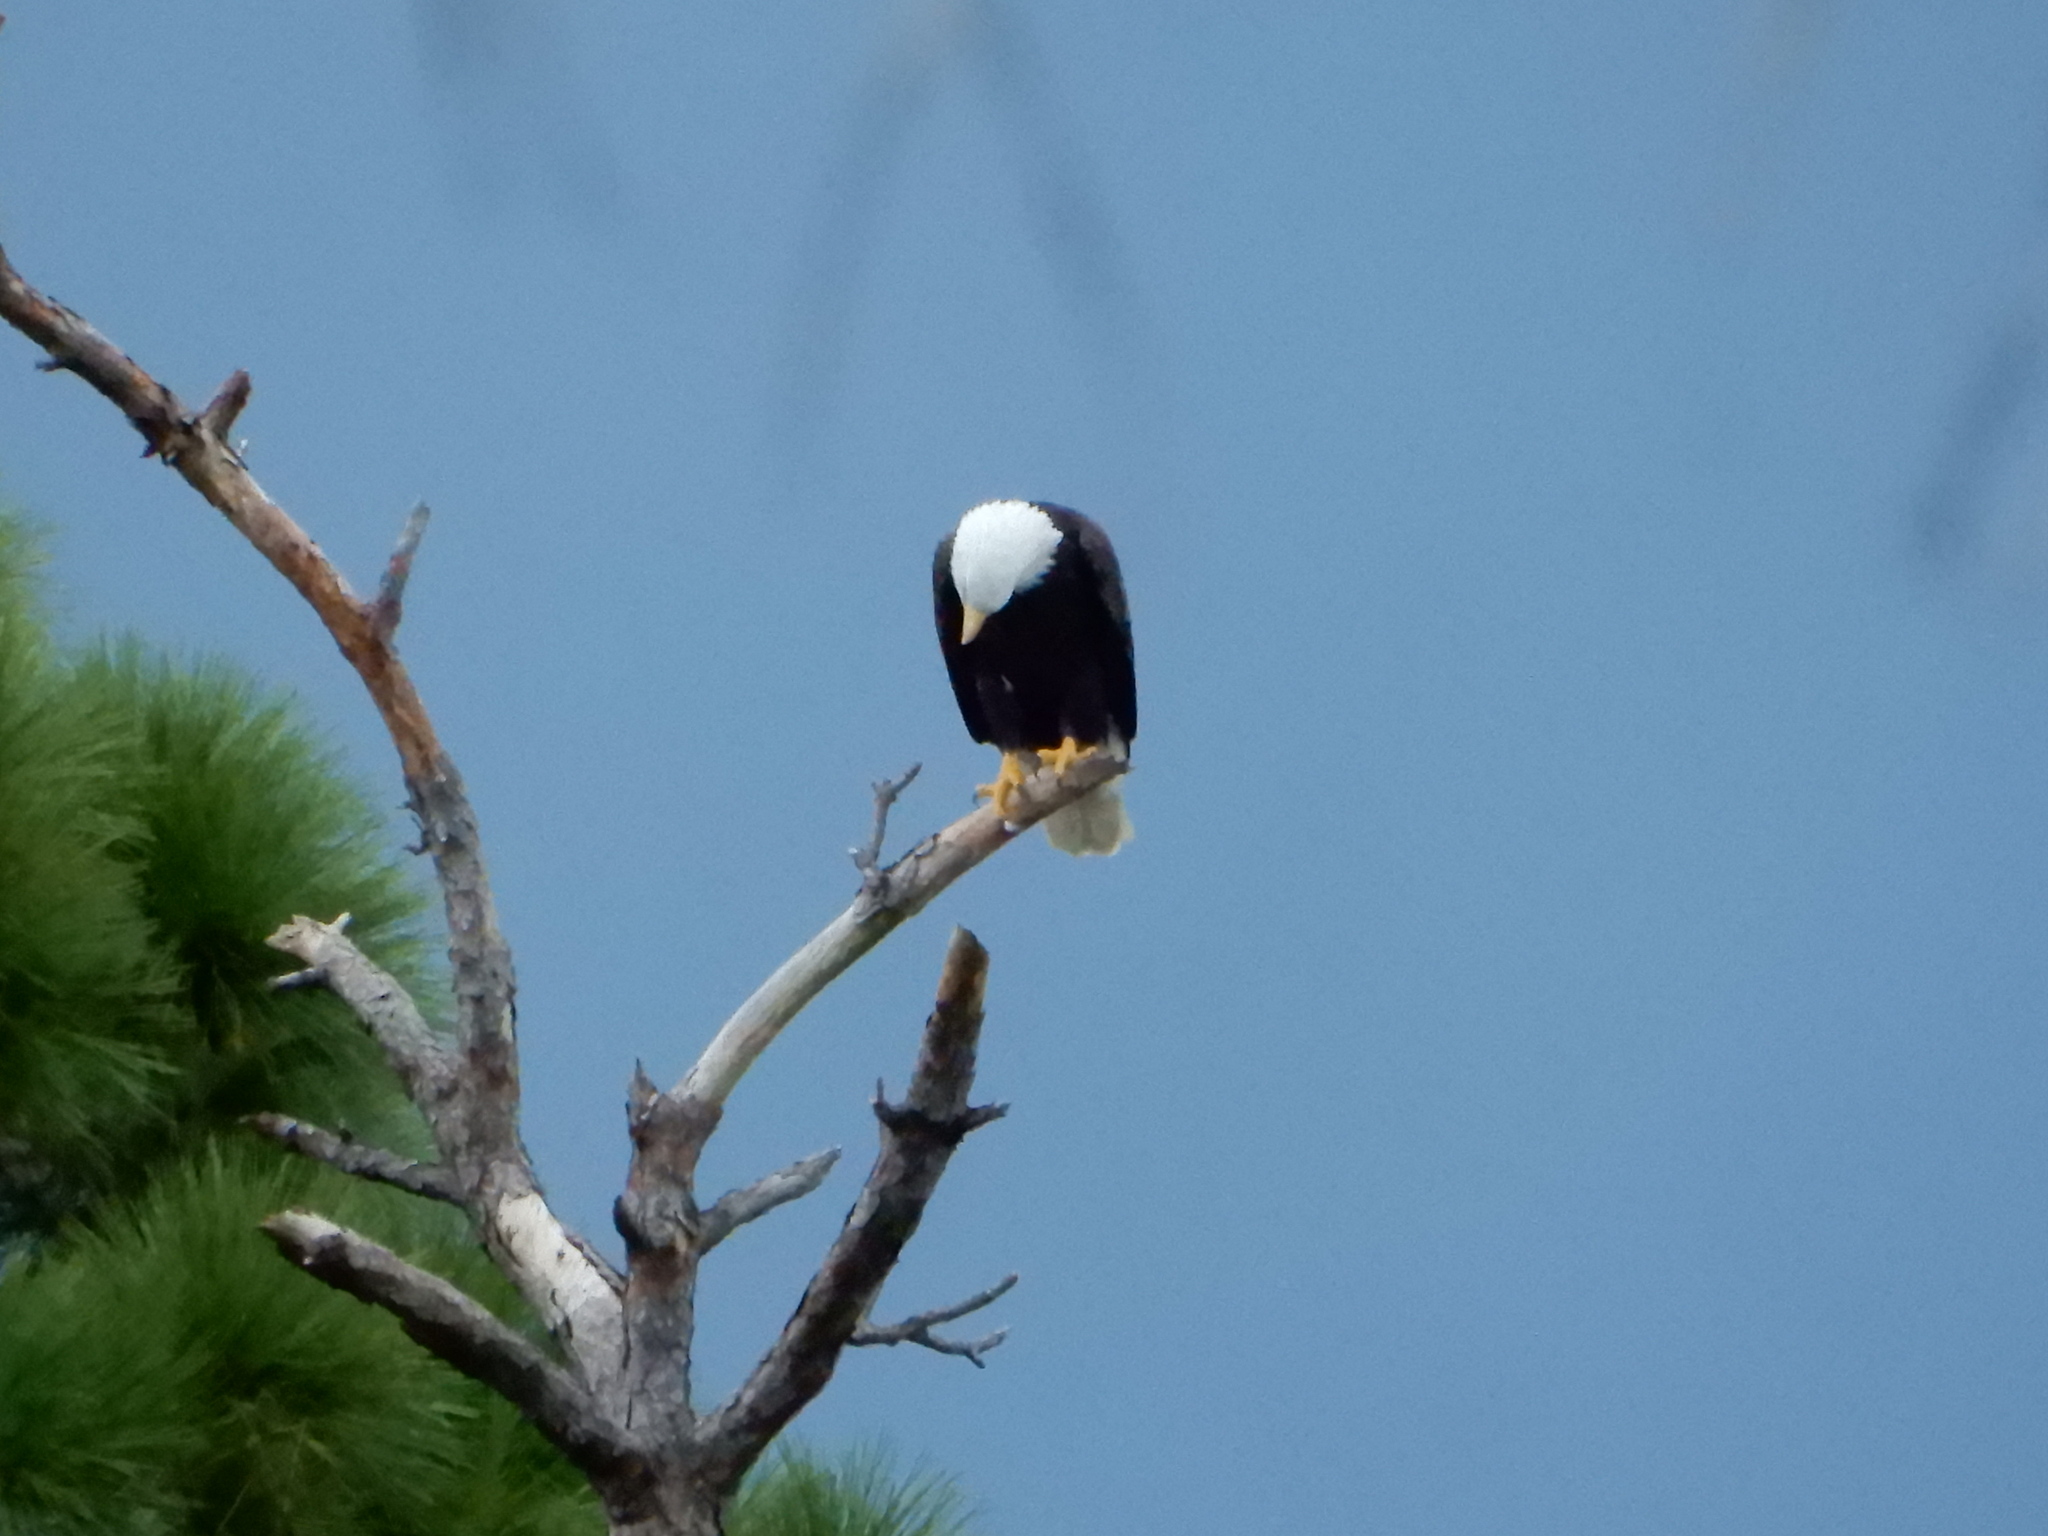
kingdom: Animalia
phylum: Chordata
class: Aves
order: Accipitriformes
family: Accipitridae
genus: Haliaeetus
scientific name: Haliaeetus leucocephalus
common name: Bald eagle
